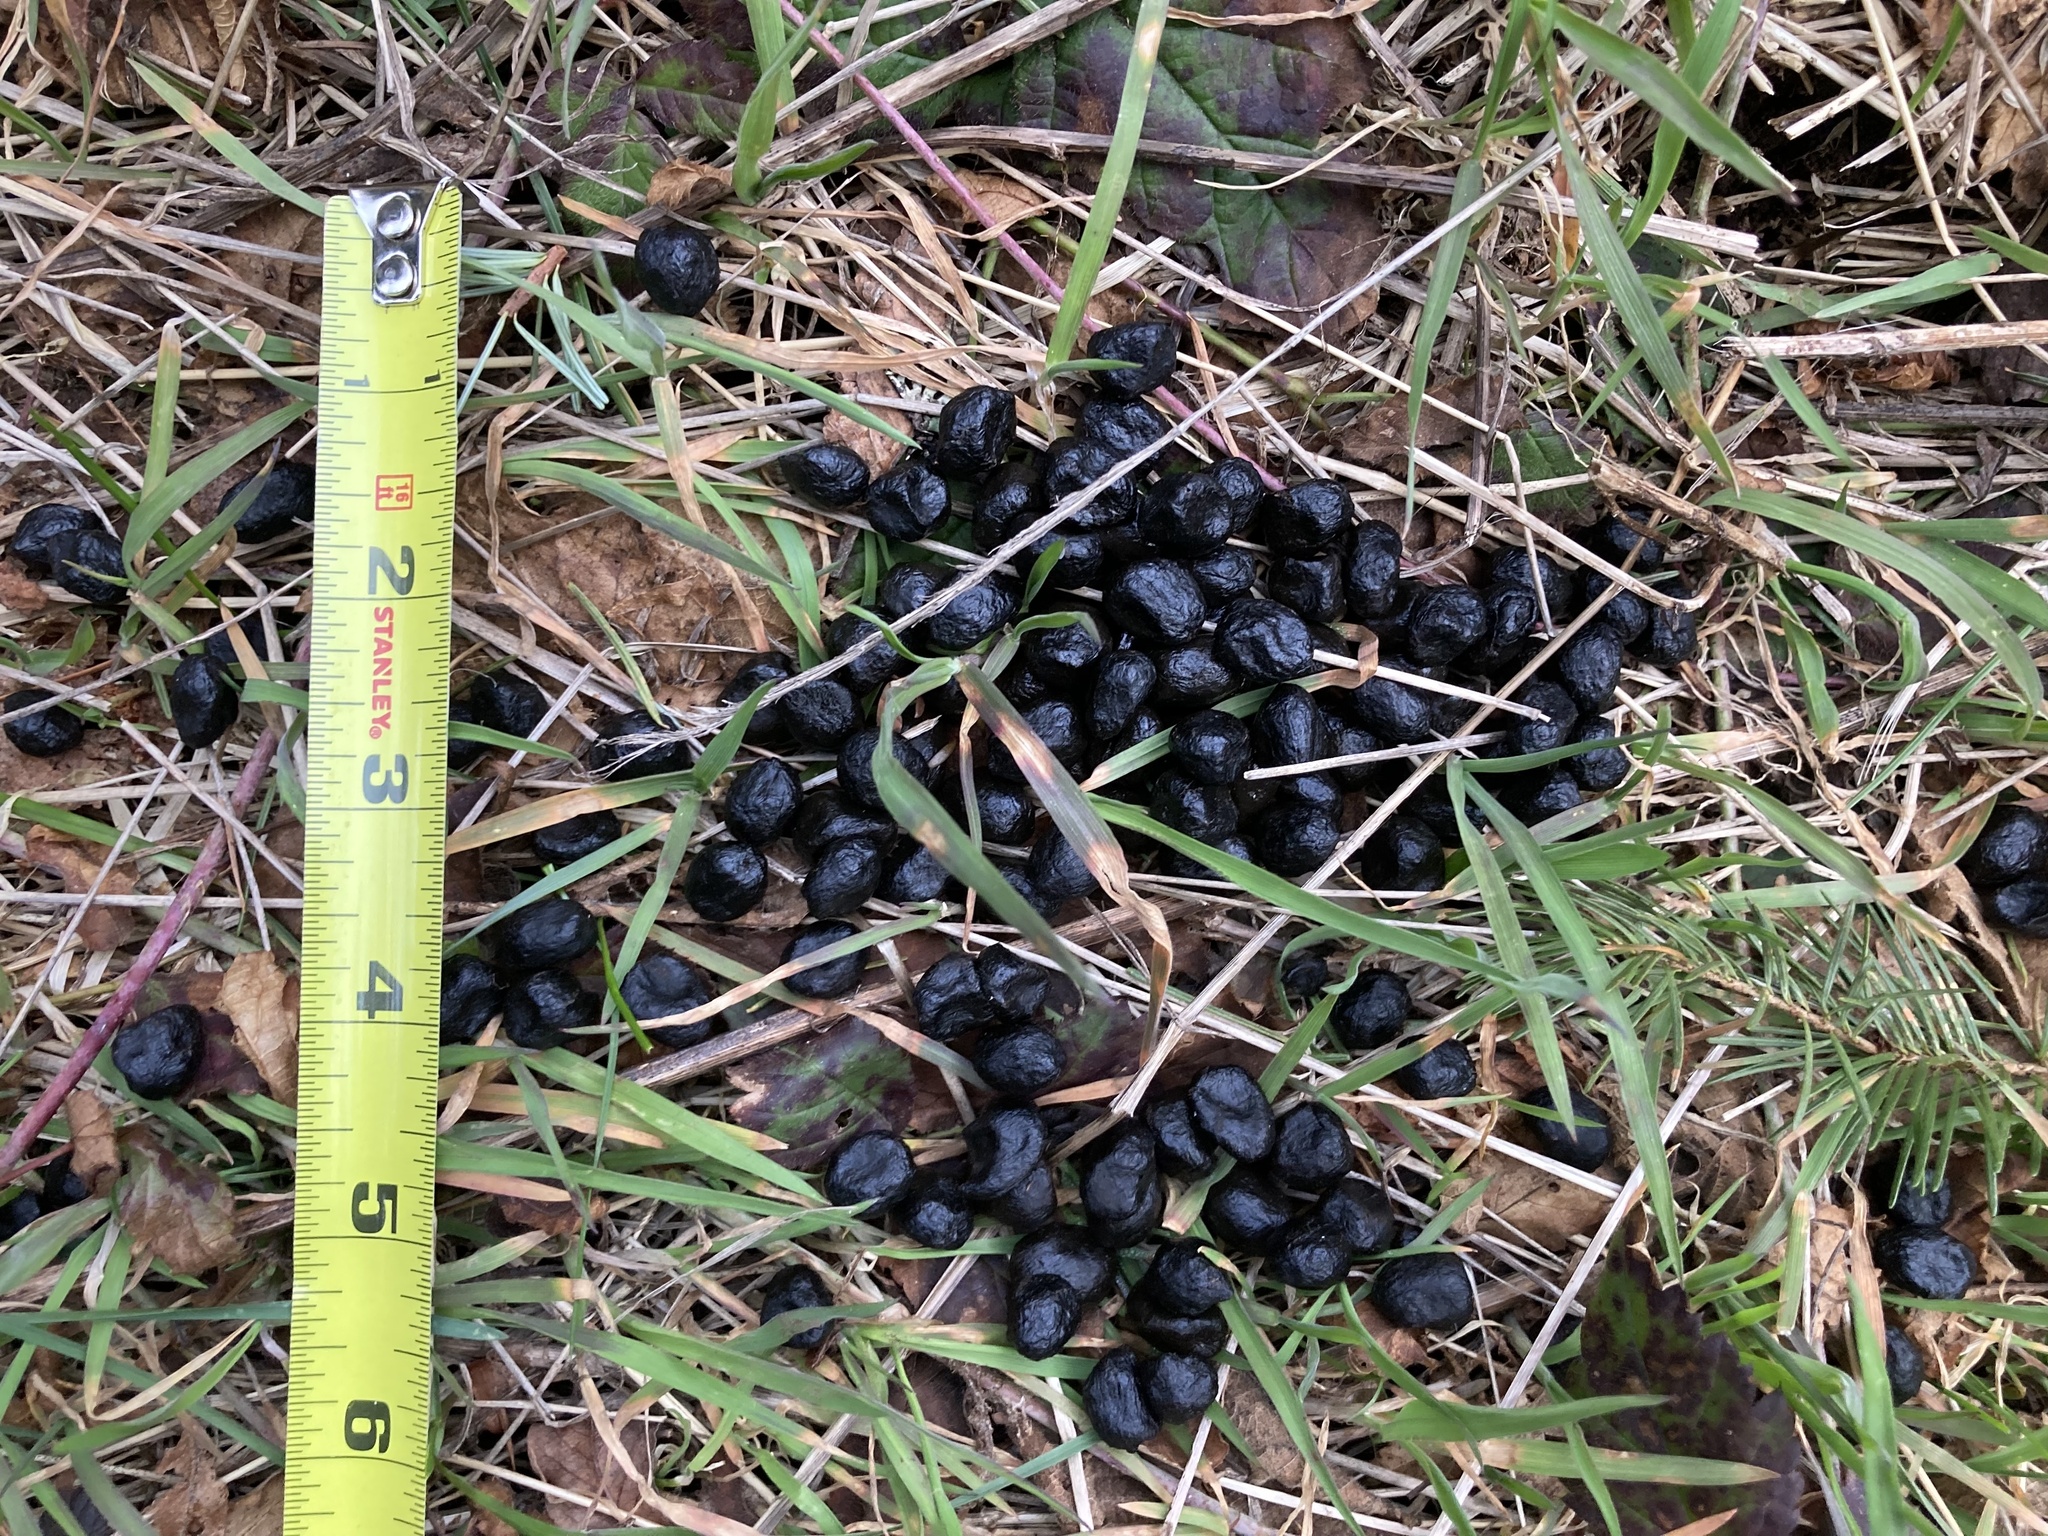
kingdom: Animalia
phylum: Chordata
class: Mammalia
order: Artiodactyla
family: Cervidae
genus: Odocoileus
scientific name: Odocoileus hemionus
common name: Mule deer
